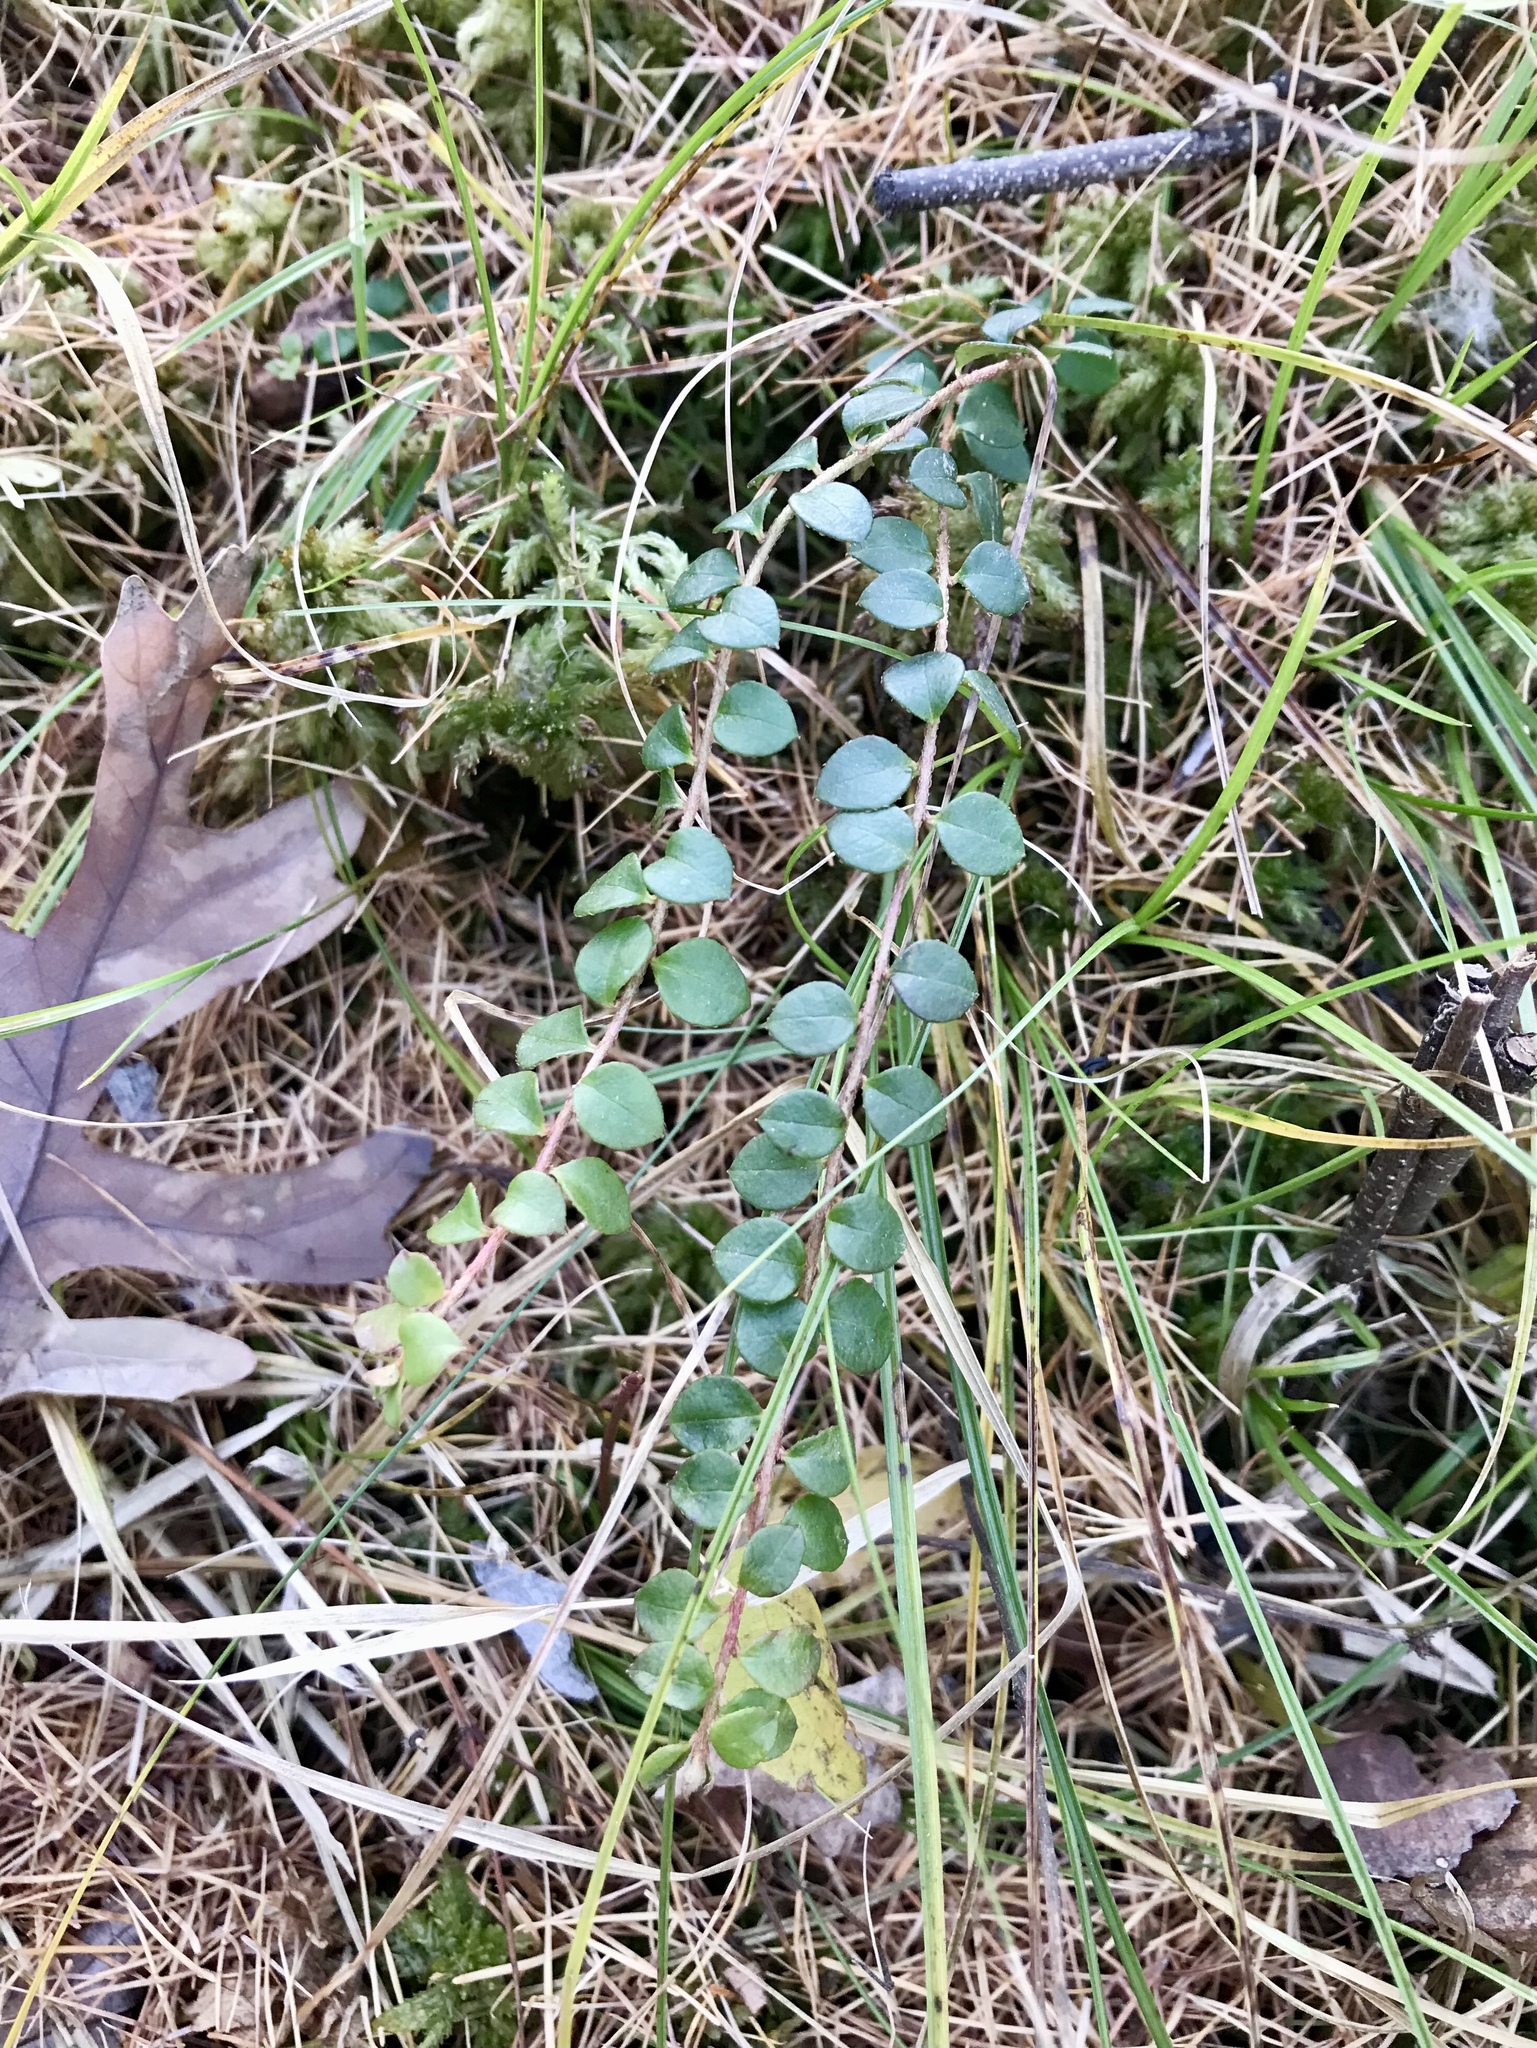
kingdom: Plantae
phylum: Tracheophyta
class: Magnoliopsida
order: Ericales
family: Ericaceae
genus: Gaultheria
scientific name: Gaultheria hispidula
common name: Cancer wintergreen
